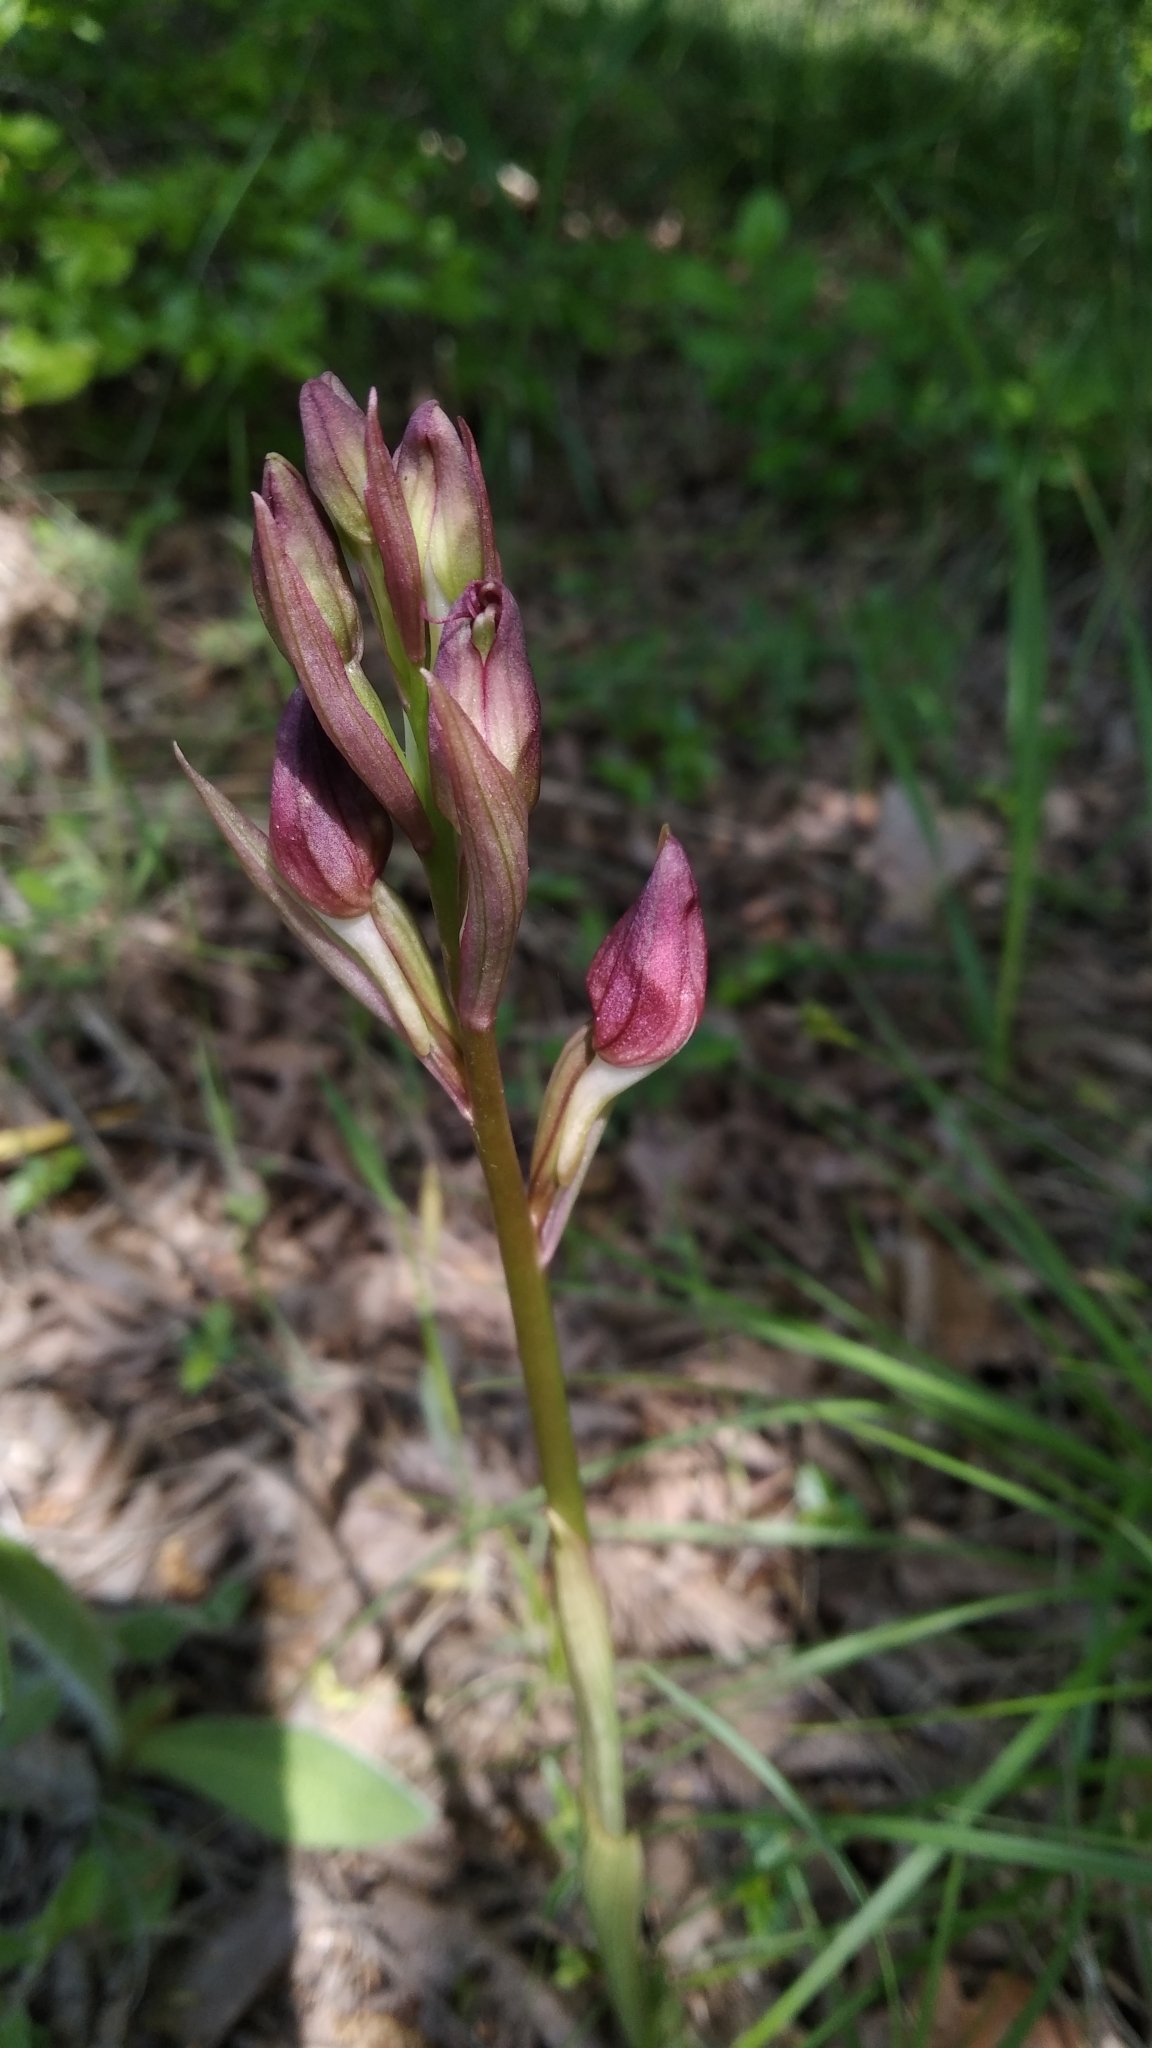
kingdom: Plantae
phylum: Tracheophyta
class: Liliopsida
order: Asparagales
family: Orchidaceae
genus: Himantoglossum
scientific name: Himantoglossum comperianum
